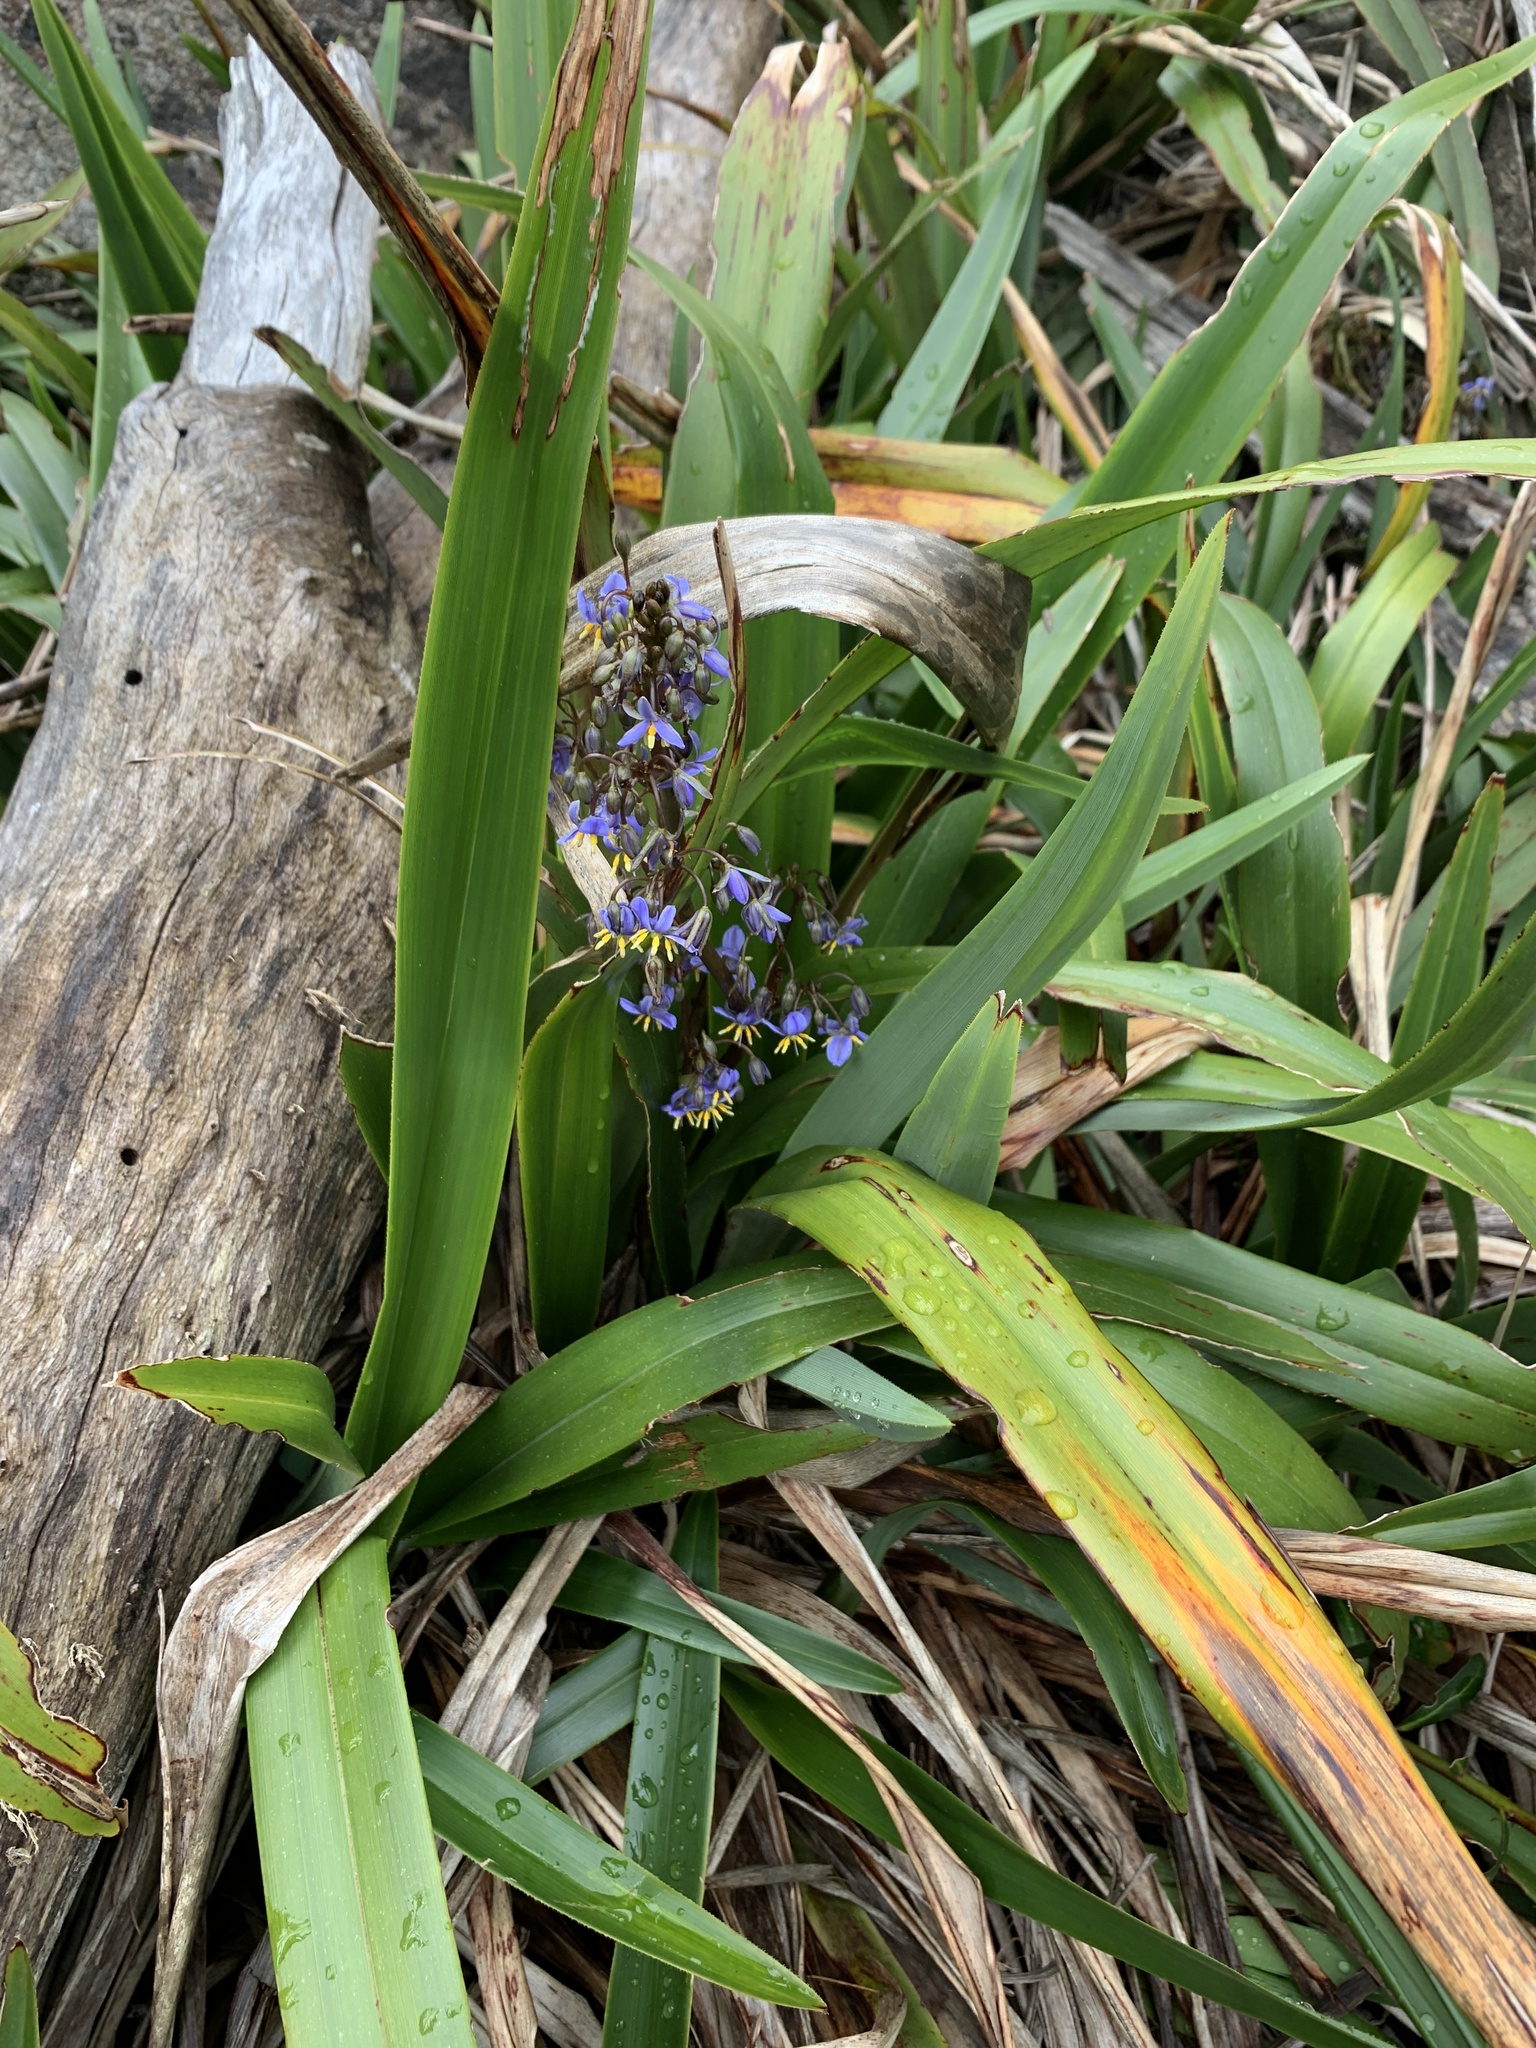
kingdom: Plantae
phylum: Tracheophyta
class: Liliopsida
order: Asparagales
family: Asphodelaceae
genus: Dianella
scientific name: Dianella tasmanica
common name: Tasman flax-lily
